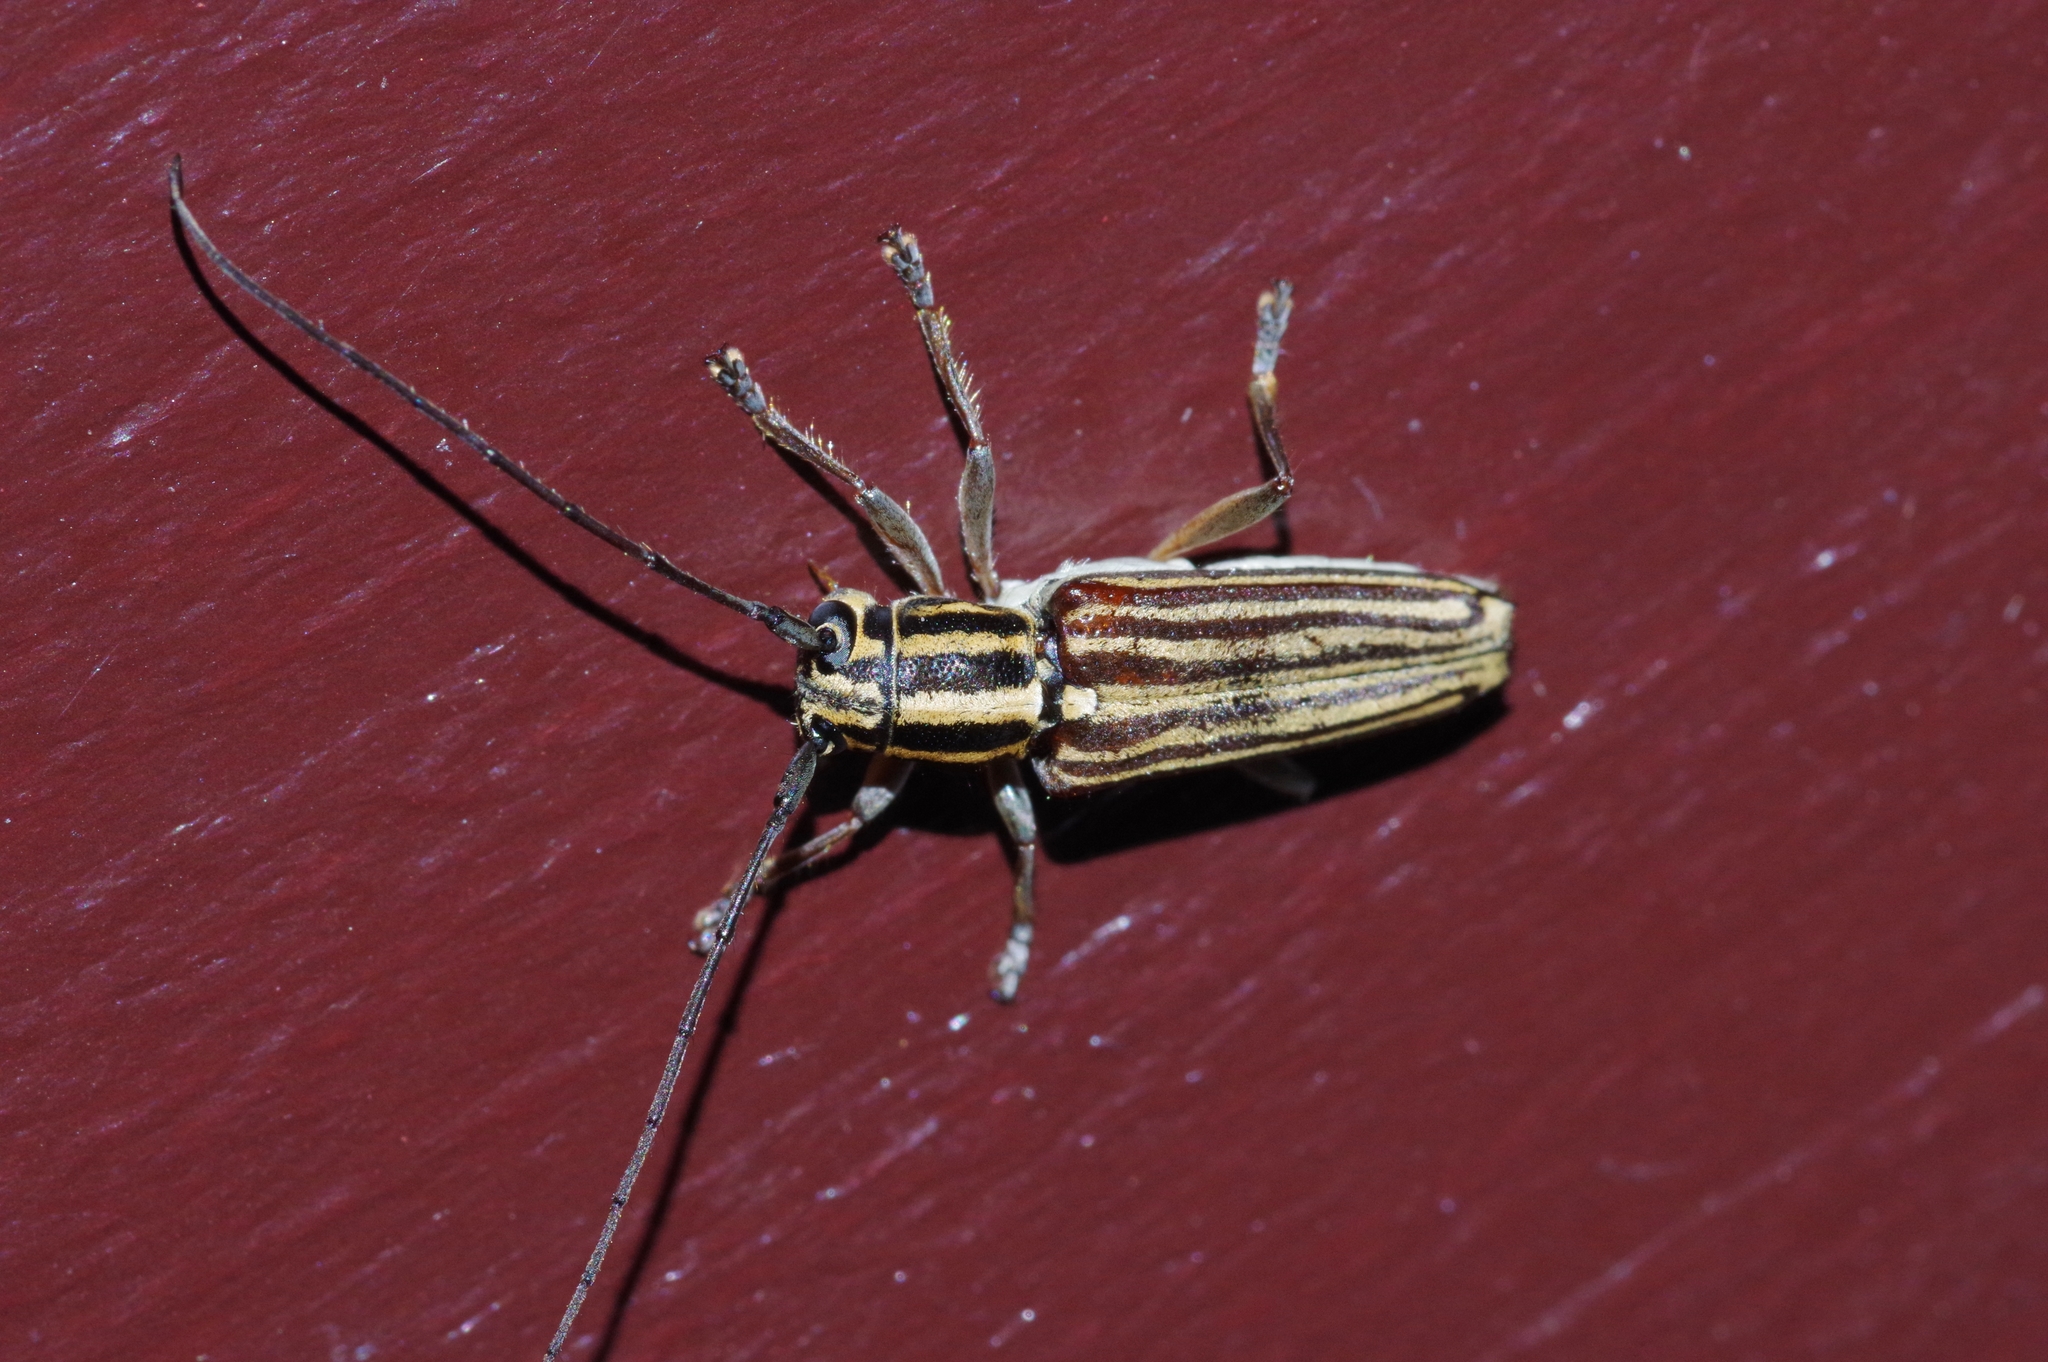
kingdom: Animalia
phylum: Arthropoda
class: Insecta
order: Coleoptera
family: Cerambycidae
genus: Glenea
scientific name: Glenea lineata
